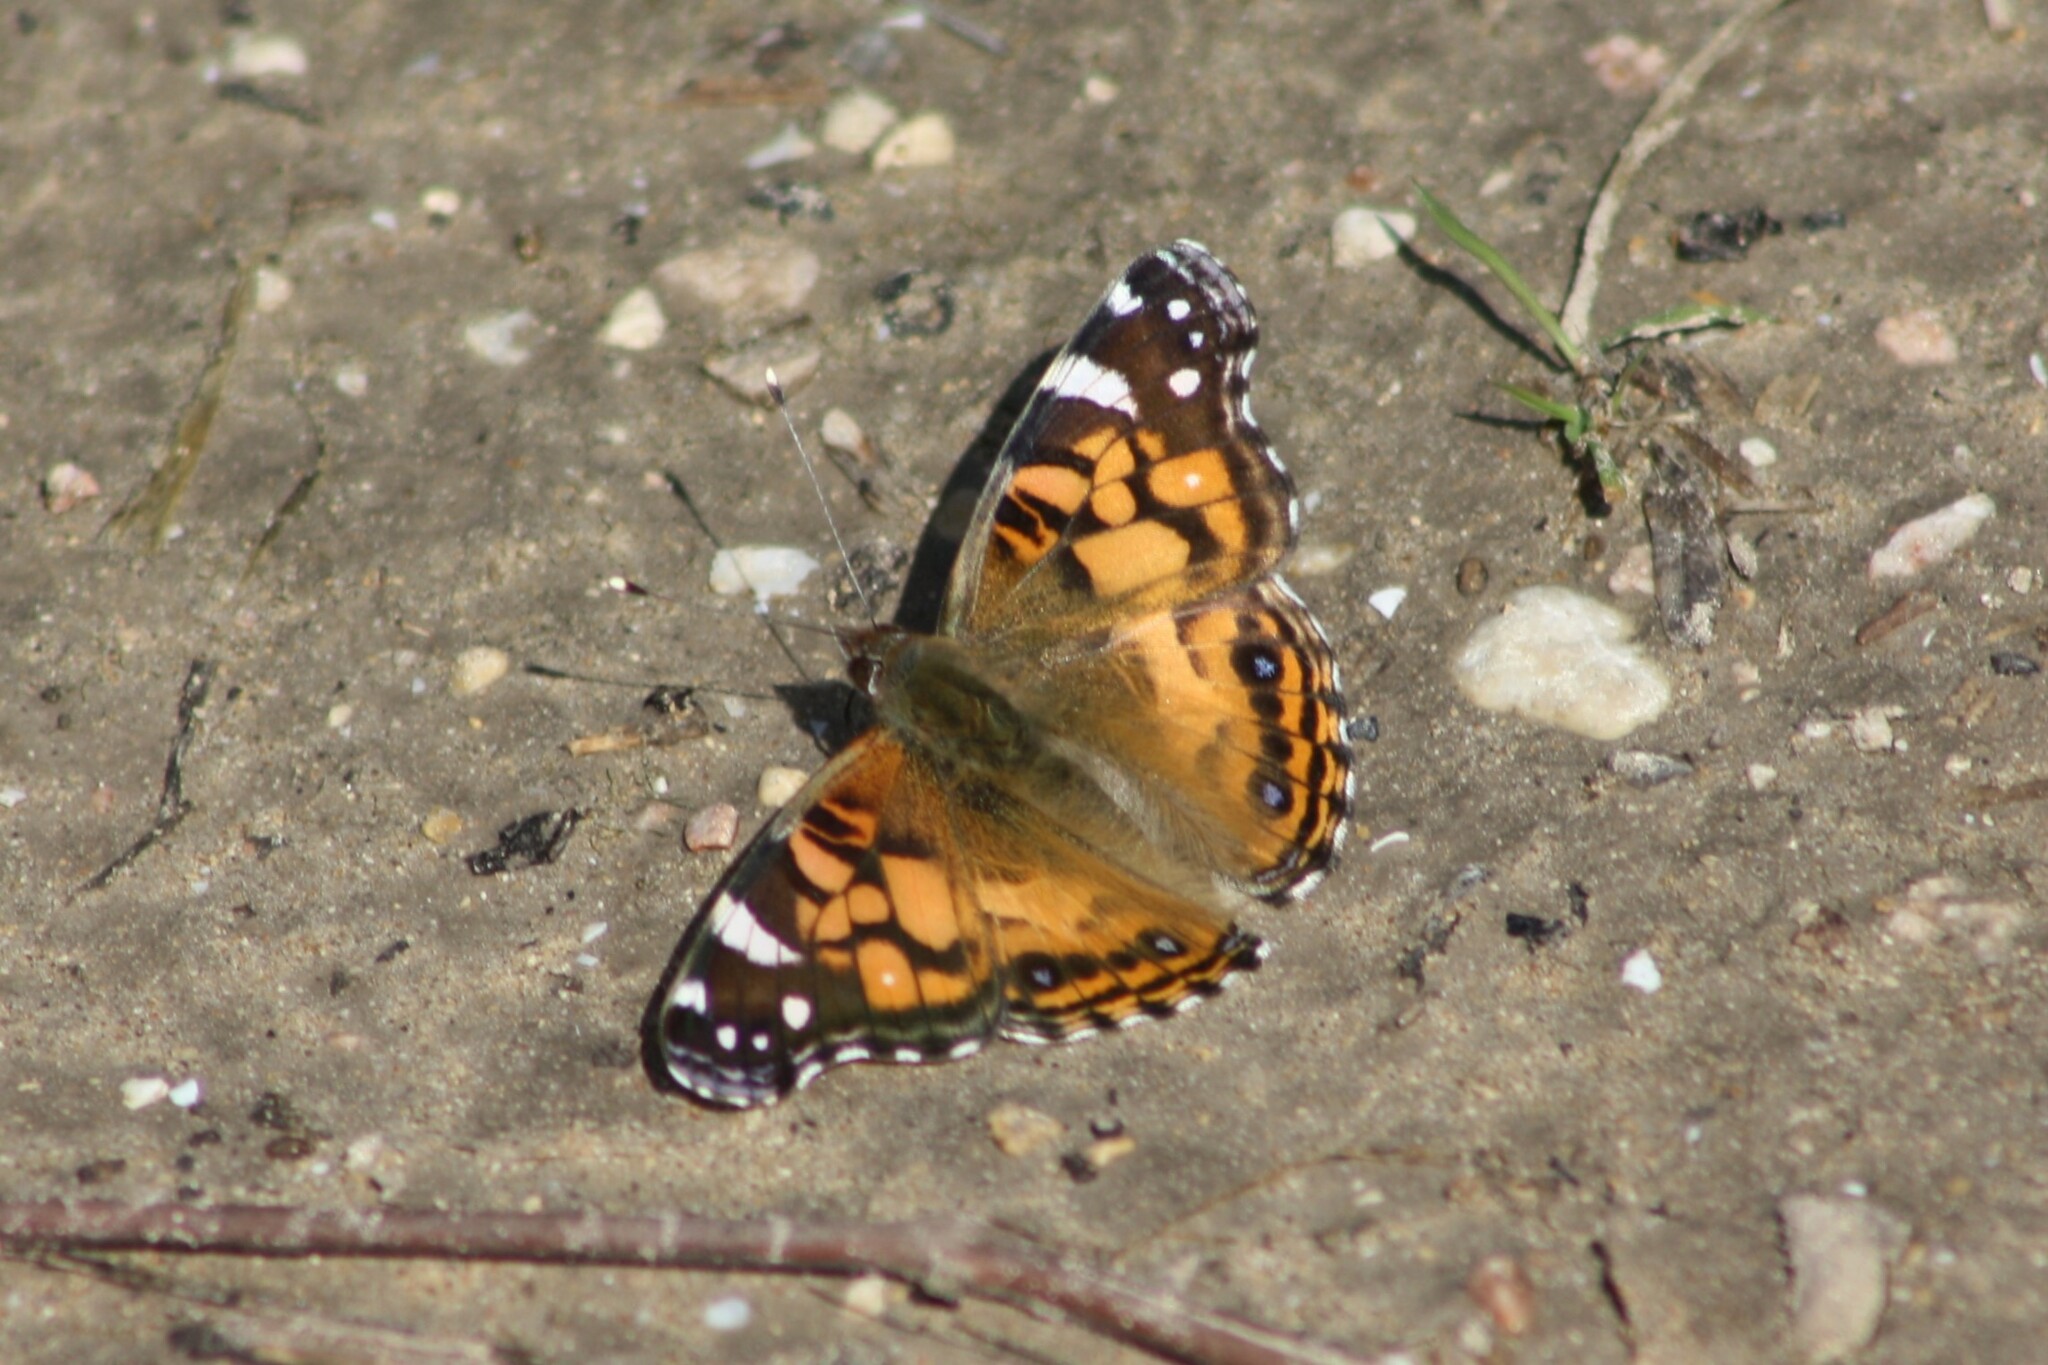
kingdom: Animalia
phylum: Arthropoda
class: Insecta
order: Lepidoptera
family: Nymphalidae
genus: Vanessa
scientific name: Vanessa virginiensis
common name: American lady
